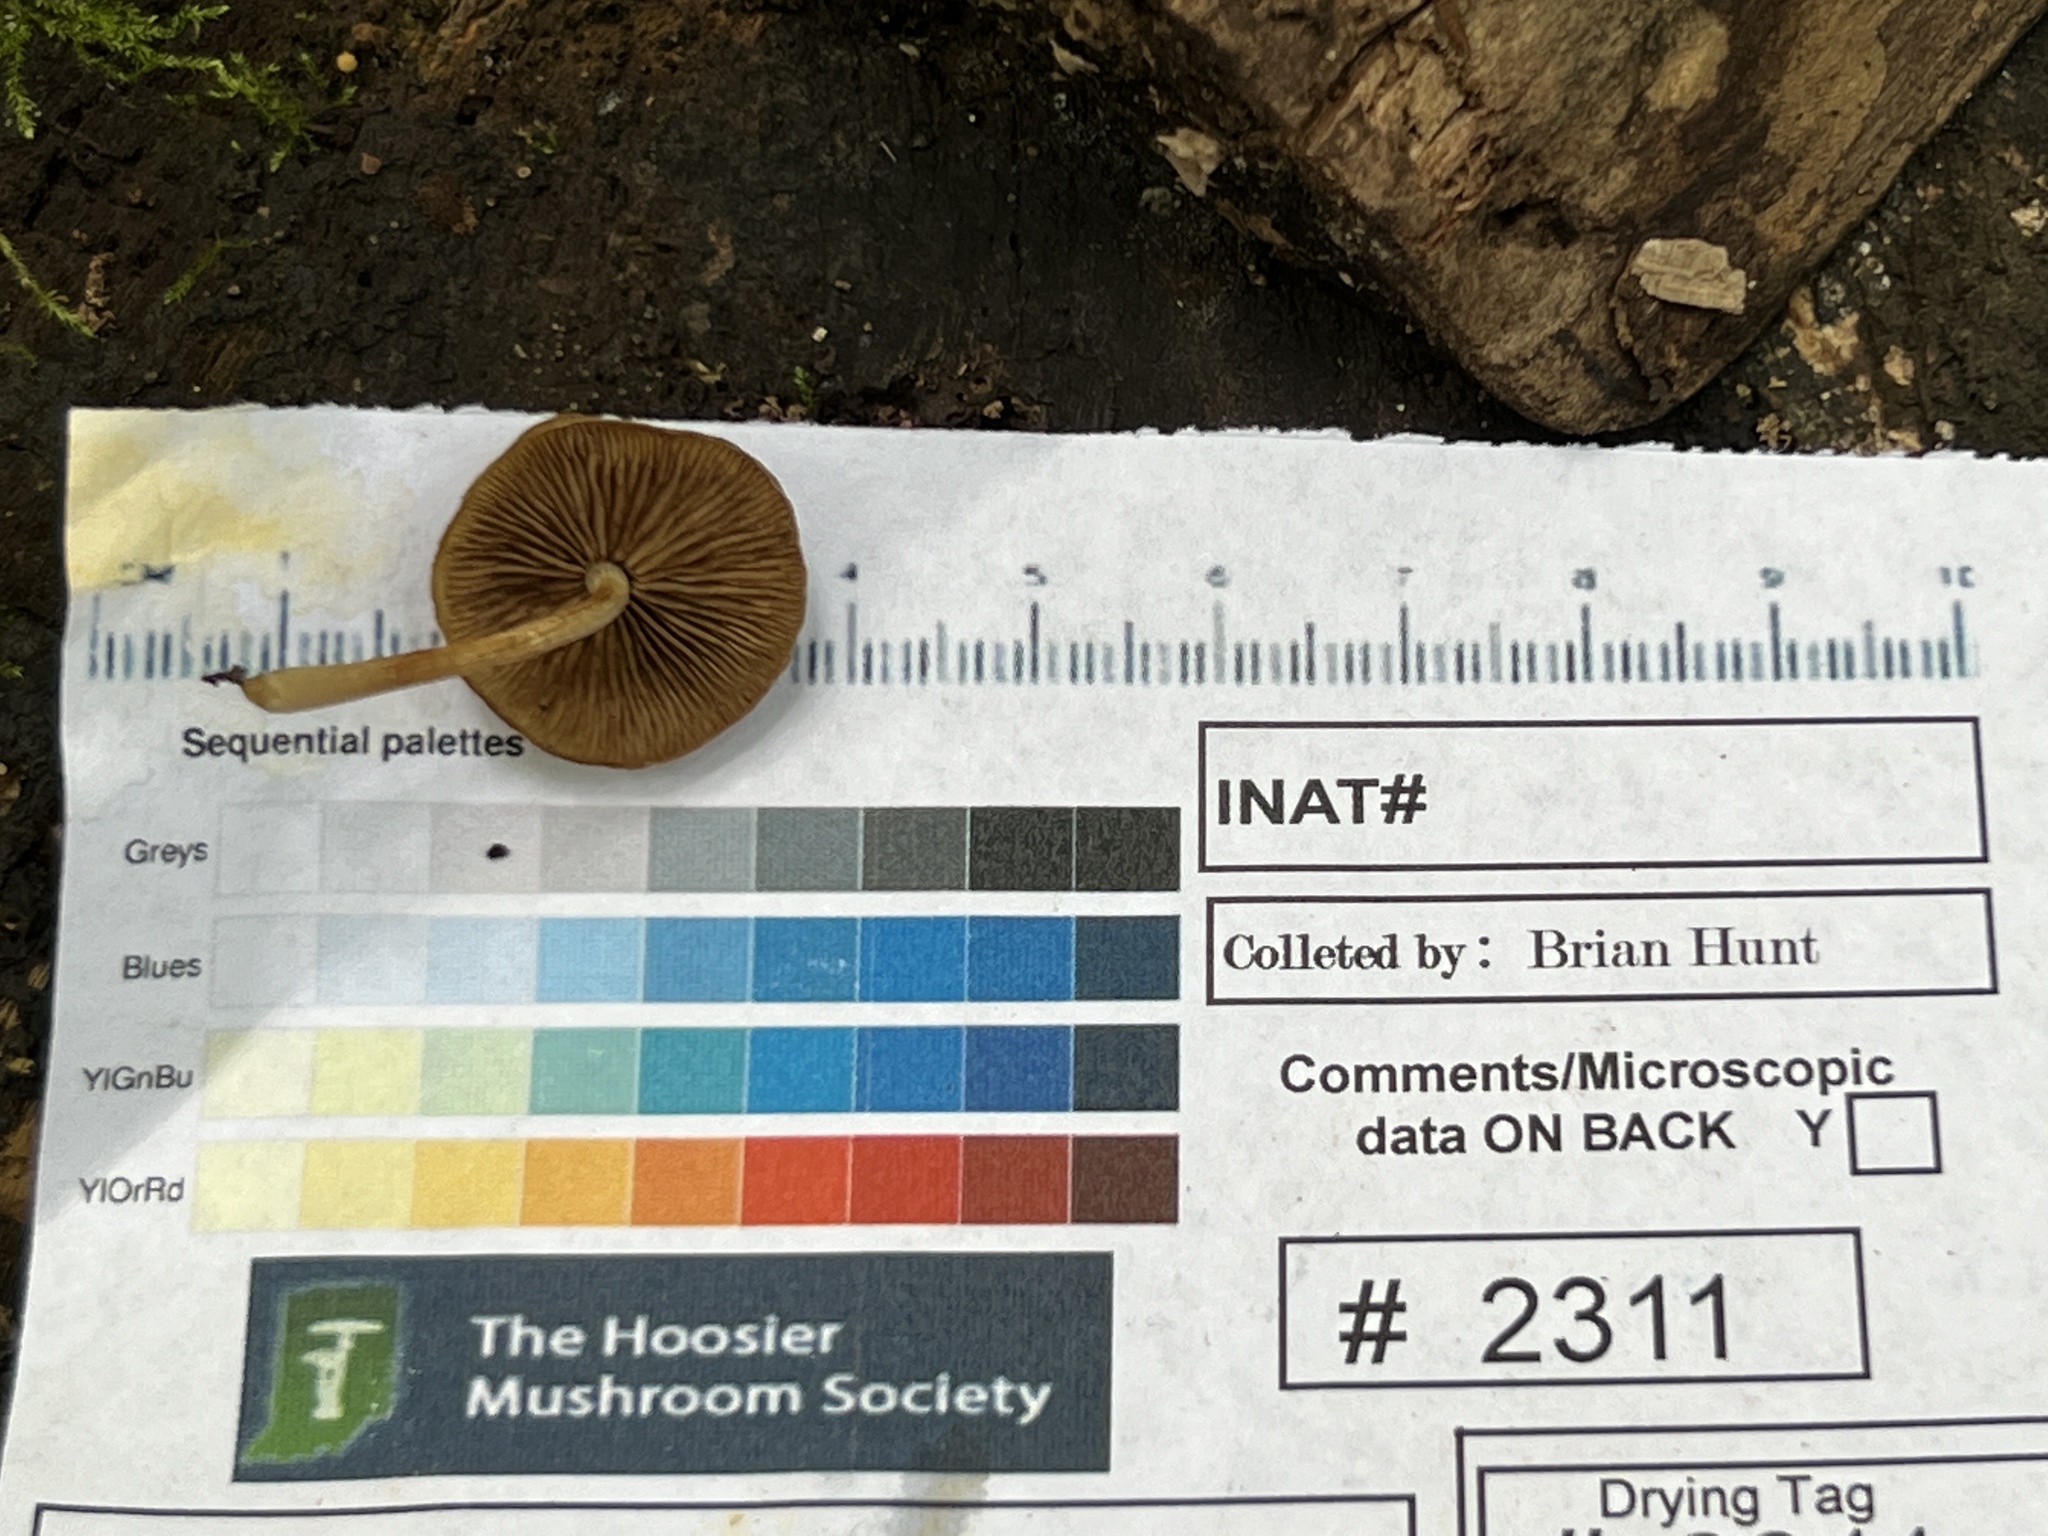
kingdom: Fungi
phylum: Basidiomycota
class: Agaricomycetes
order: Agaricales
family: Crepidotaceae
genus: Simocybe
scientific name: Simocybe serrulata
